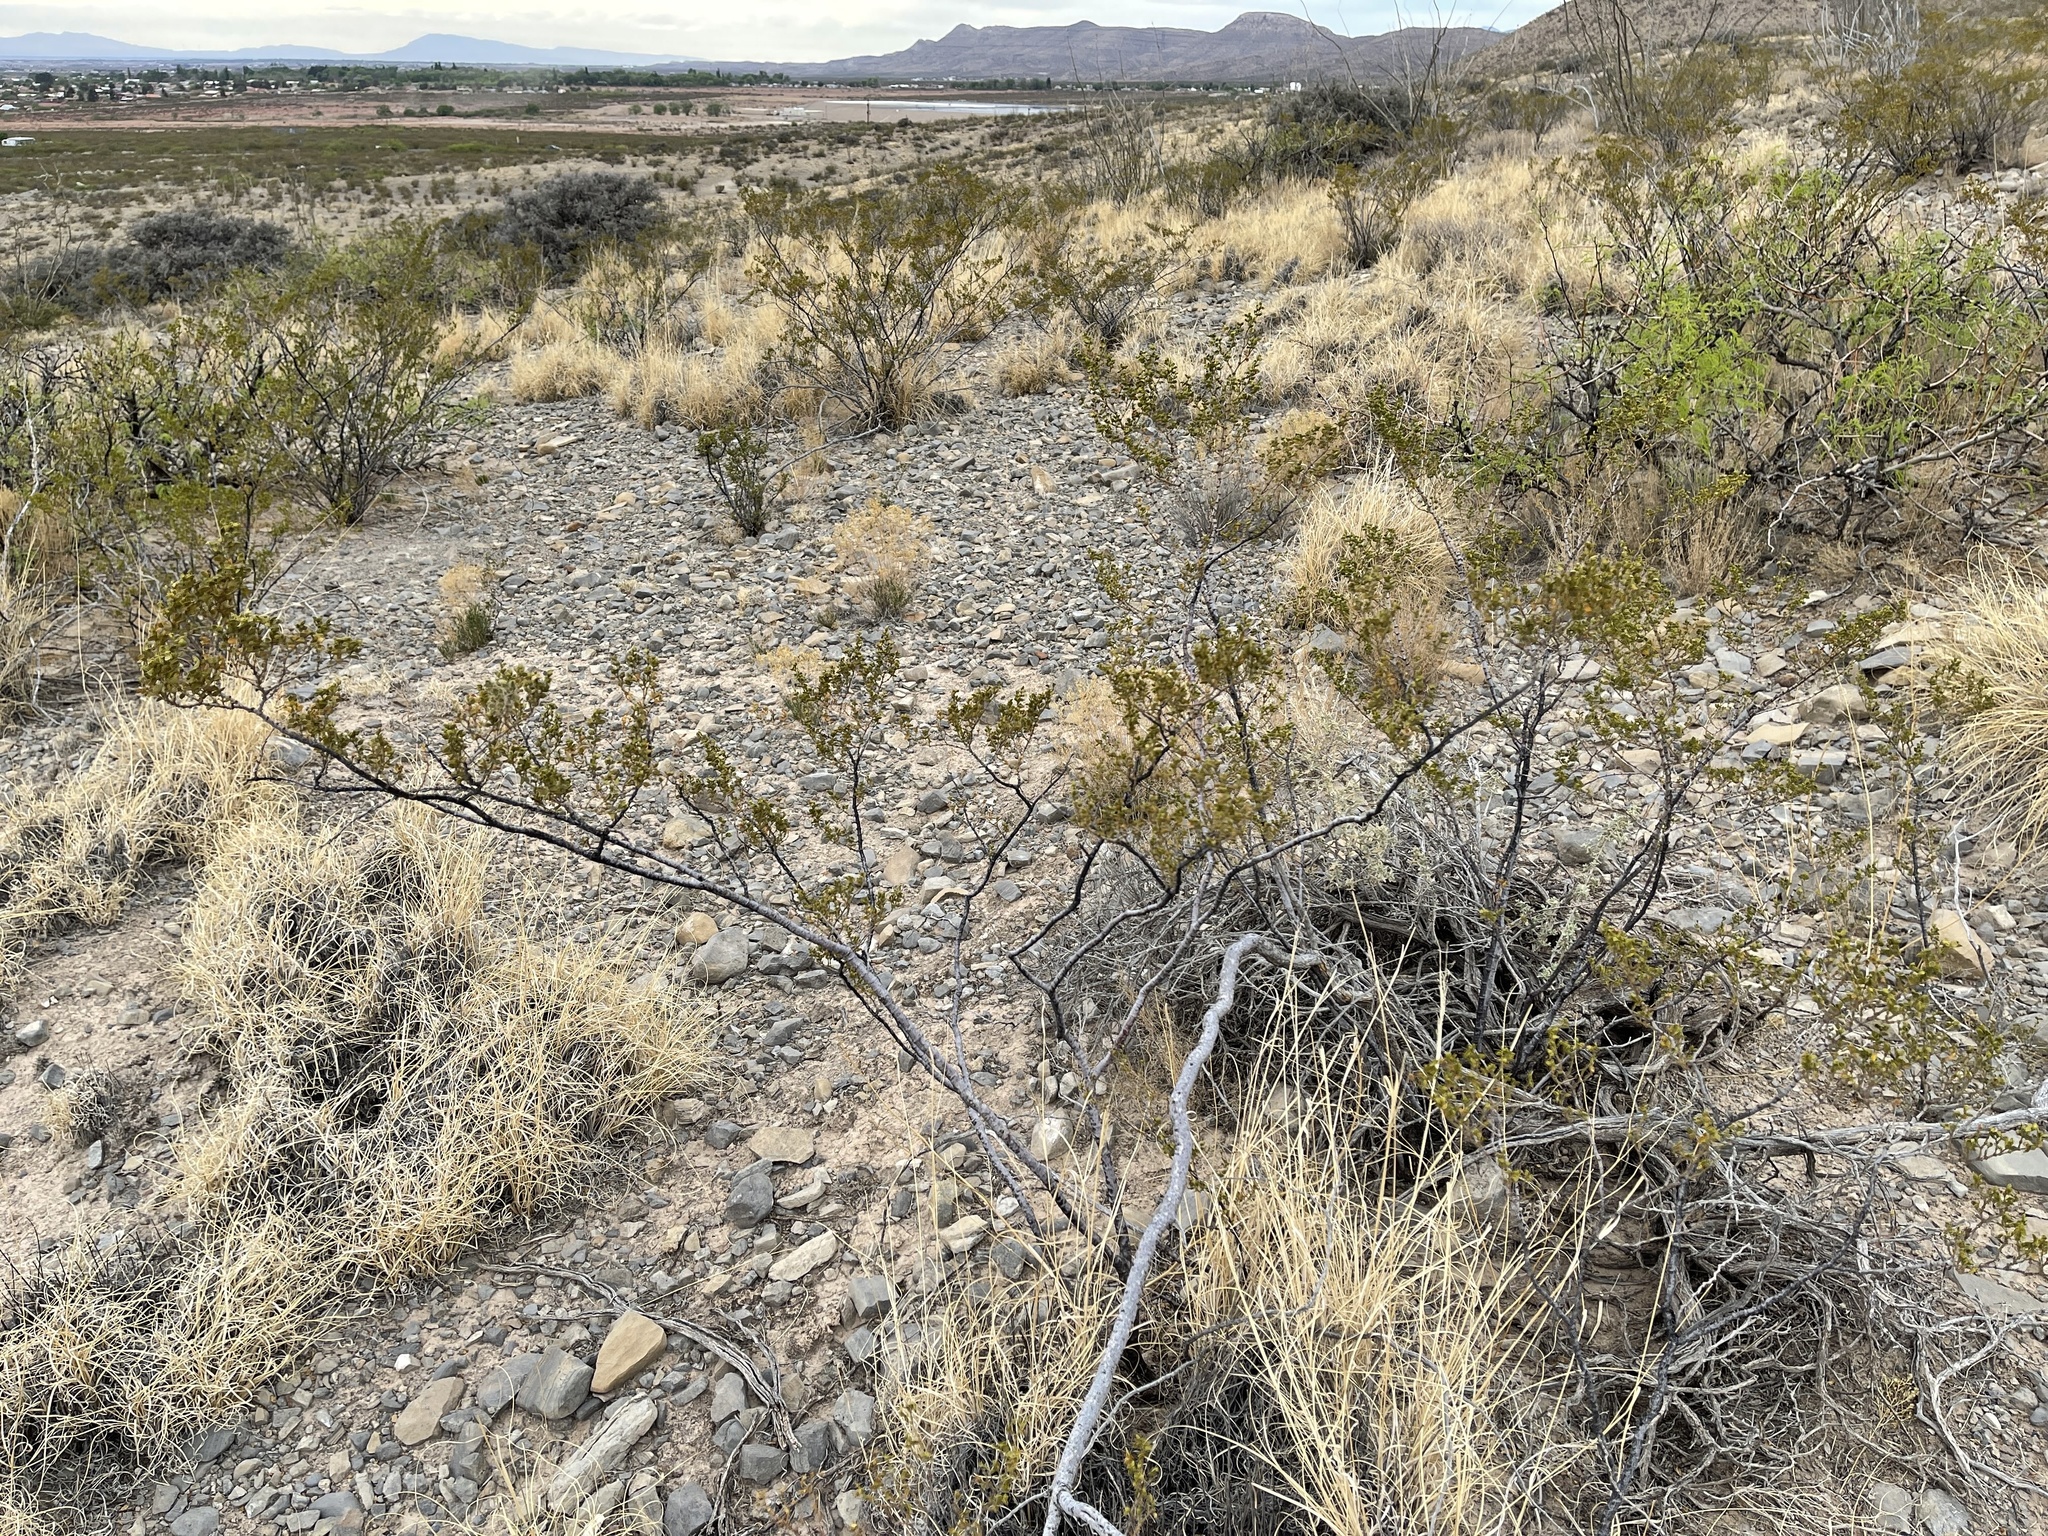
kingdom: Plantae
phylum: Tracheophyta
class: Magnoliopsida
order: Zygophyllales
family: Zygophyllaceae
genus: Larrea
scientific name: Larrea tridentata
